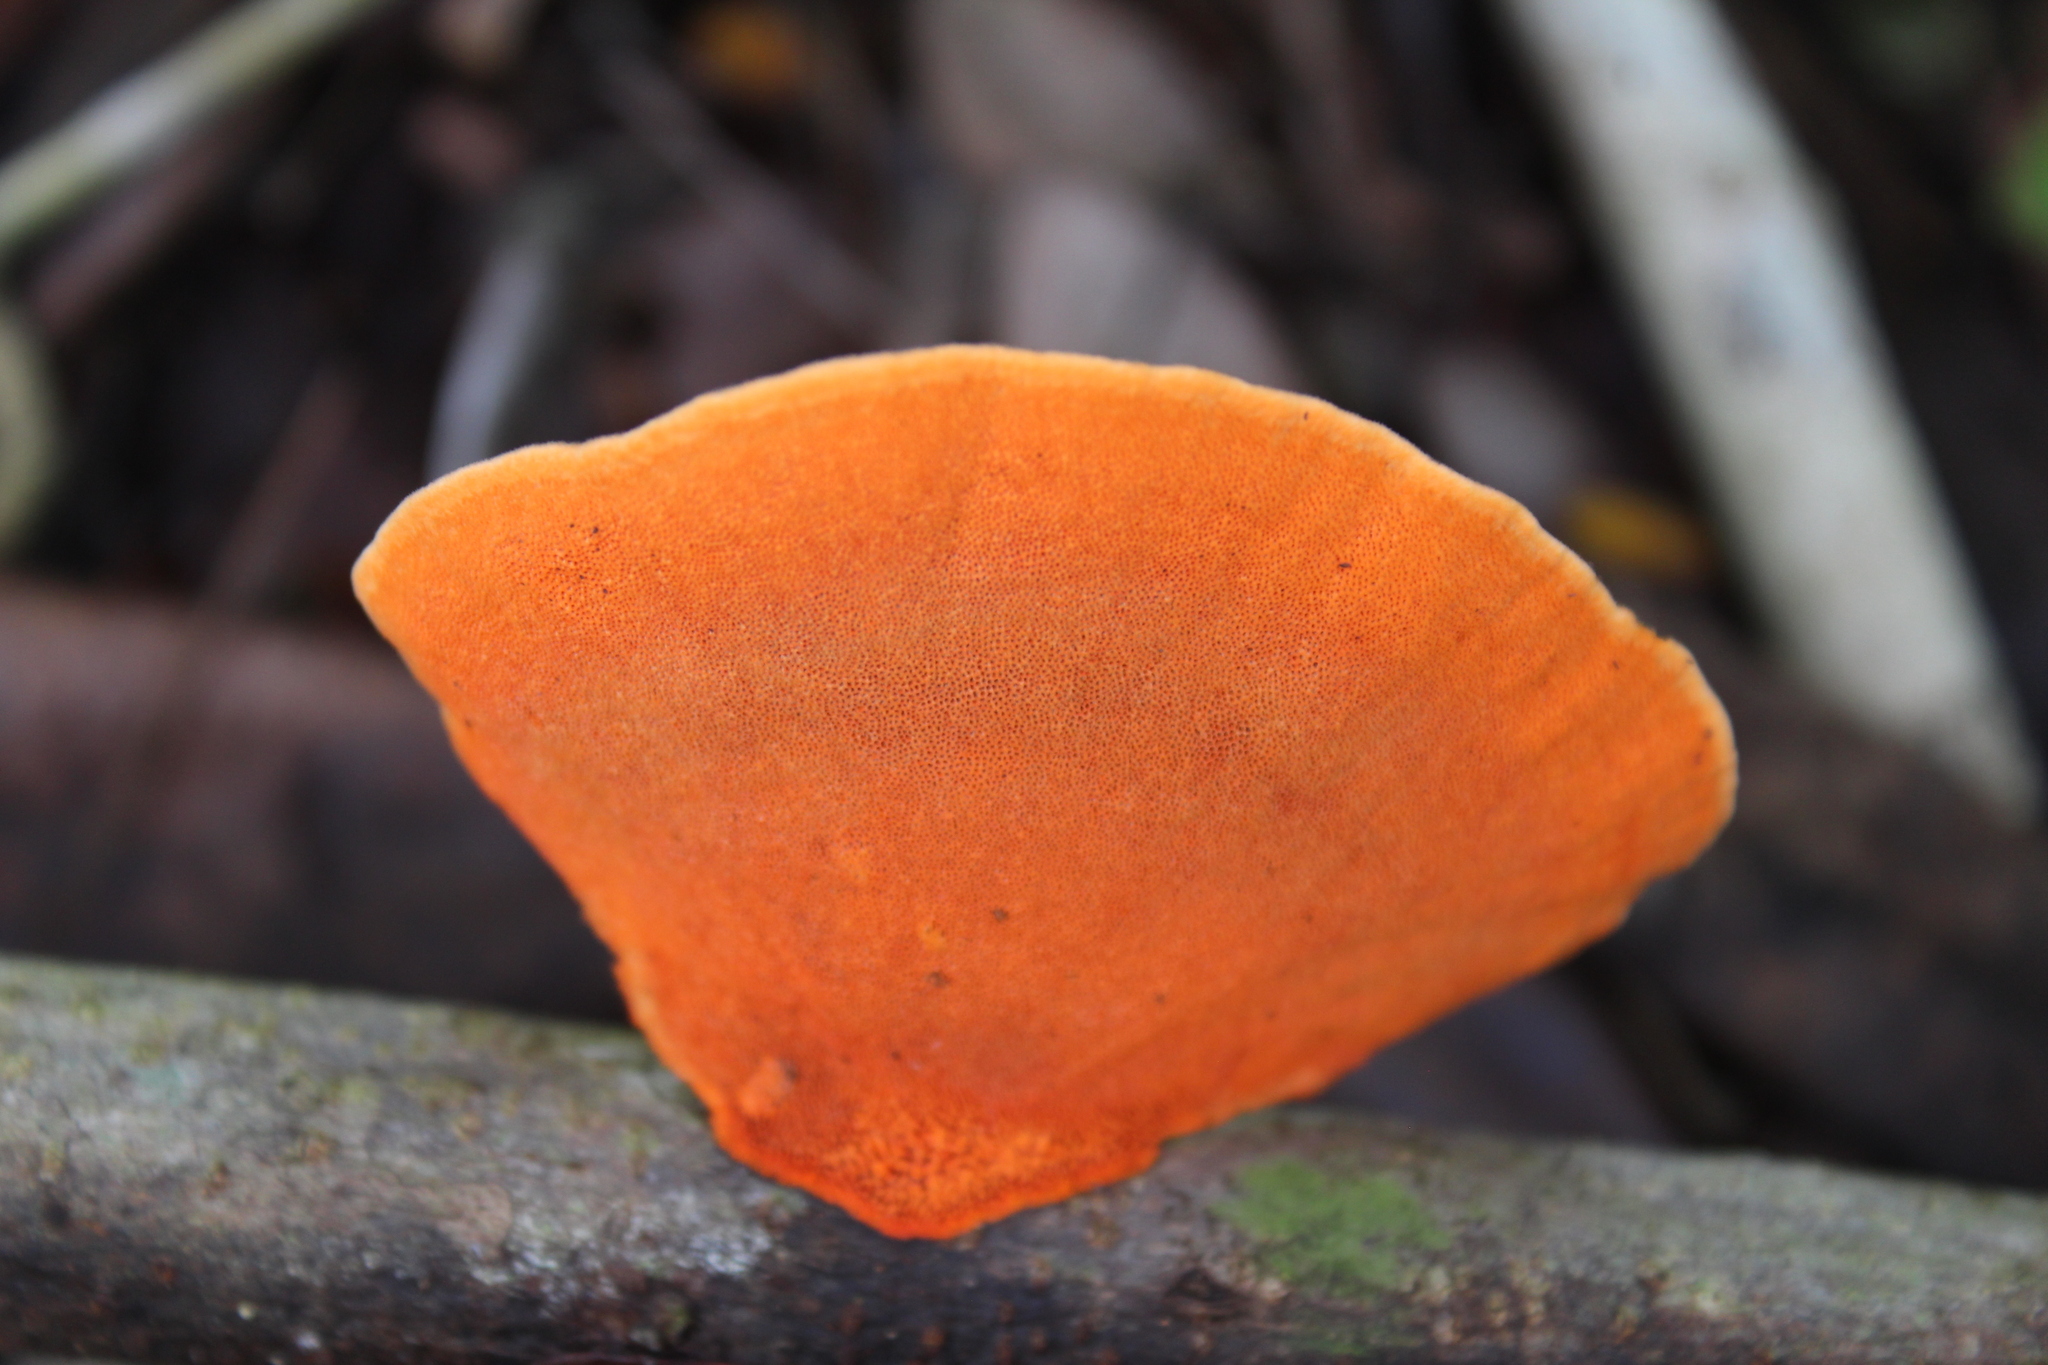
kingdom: Fungi
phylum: Basidiomycota
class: Agaricomycetes
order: Polyporales
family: Polyporaceae
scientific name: Polyporaceae
